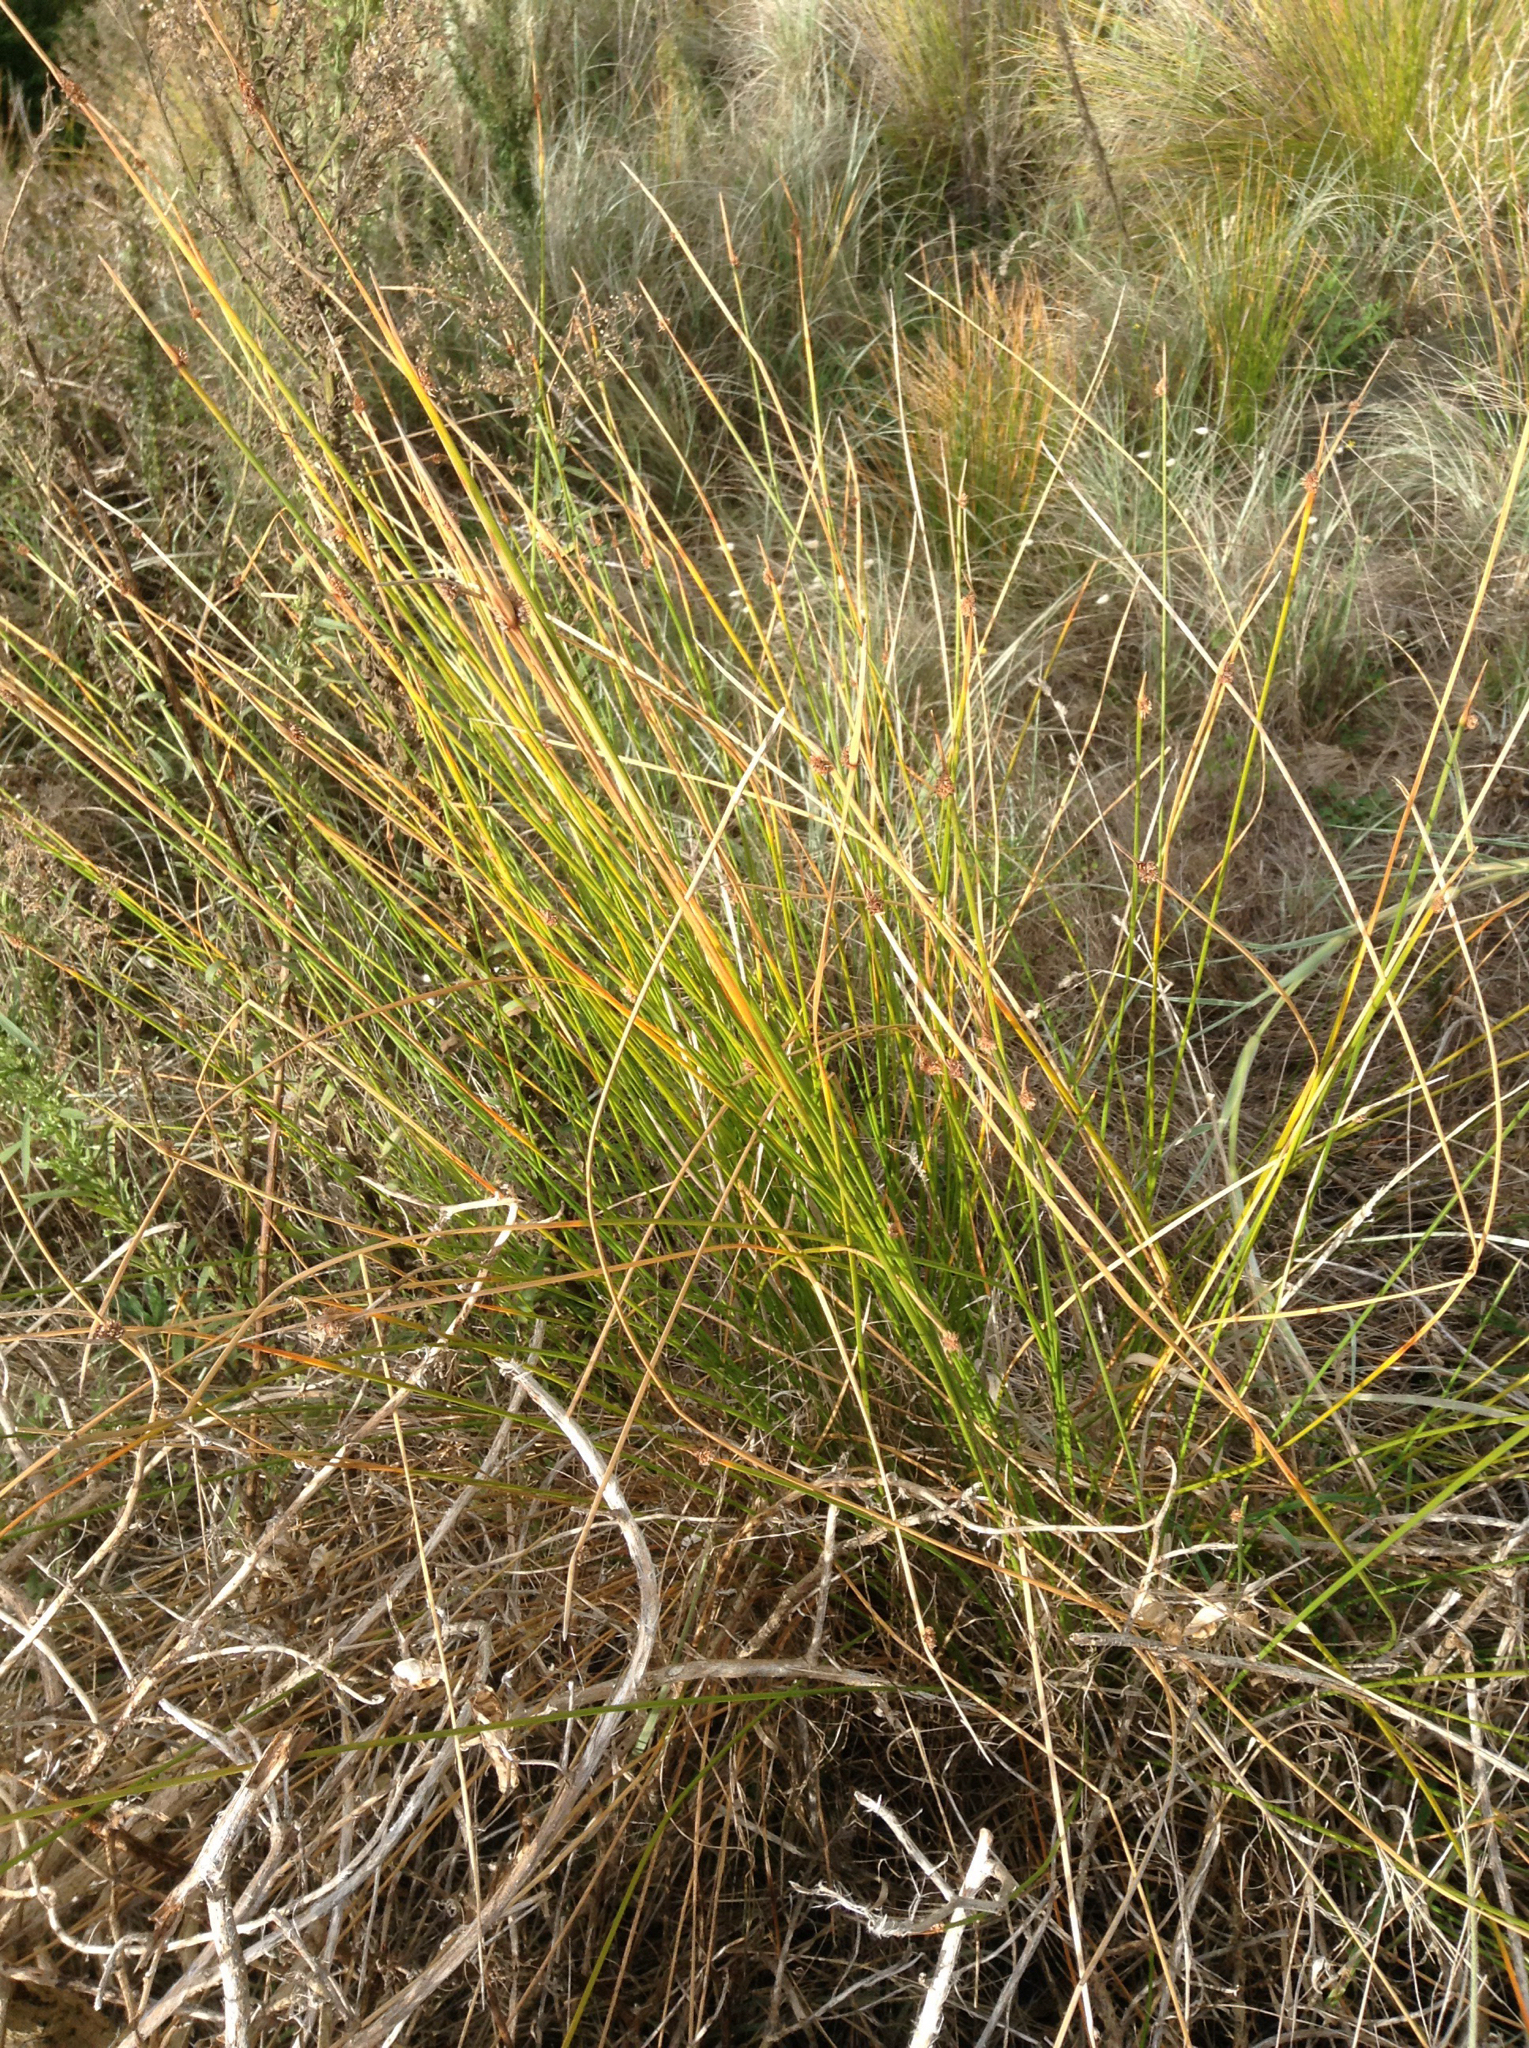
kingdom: Plantae
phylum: Tracheophyta
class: Liliopsida
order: Poales
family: Cyperaceae
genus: Ficinia
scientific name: Ficinia nodosa
